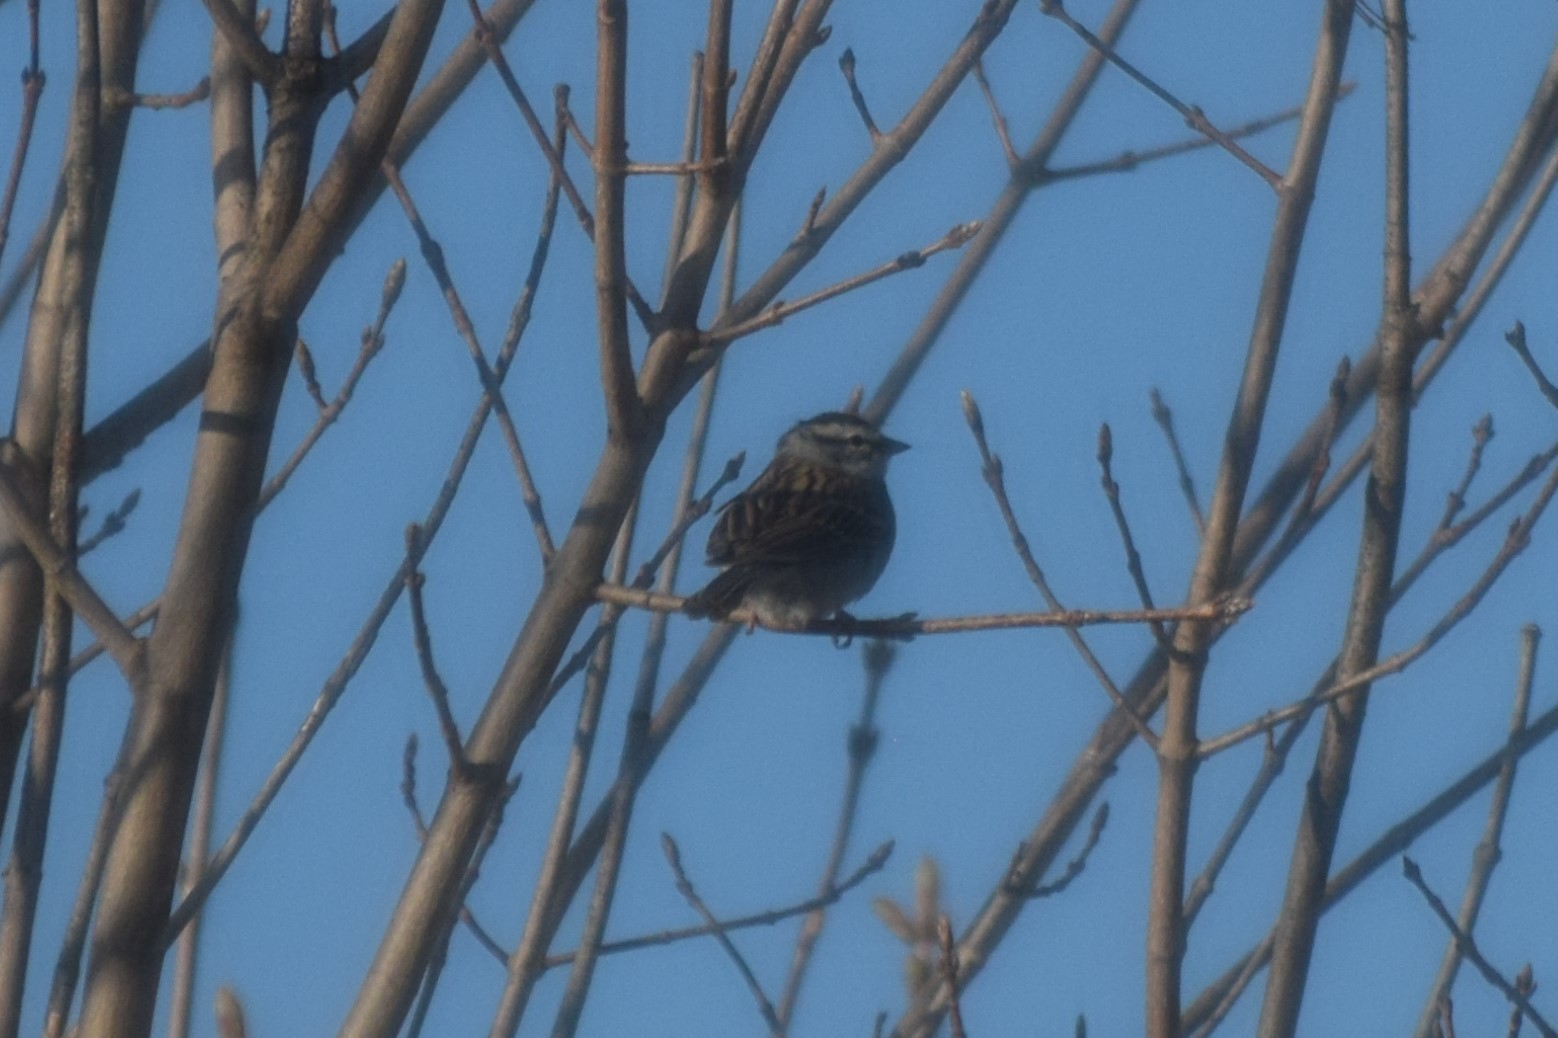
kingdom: Animalia
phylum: Chordata
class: Aves
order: Passeriformes
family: Passerellidae
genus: Spizella
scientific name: Spizella passerina
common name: Chipping sparrow
